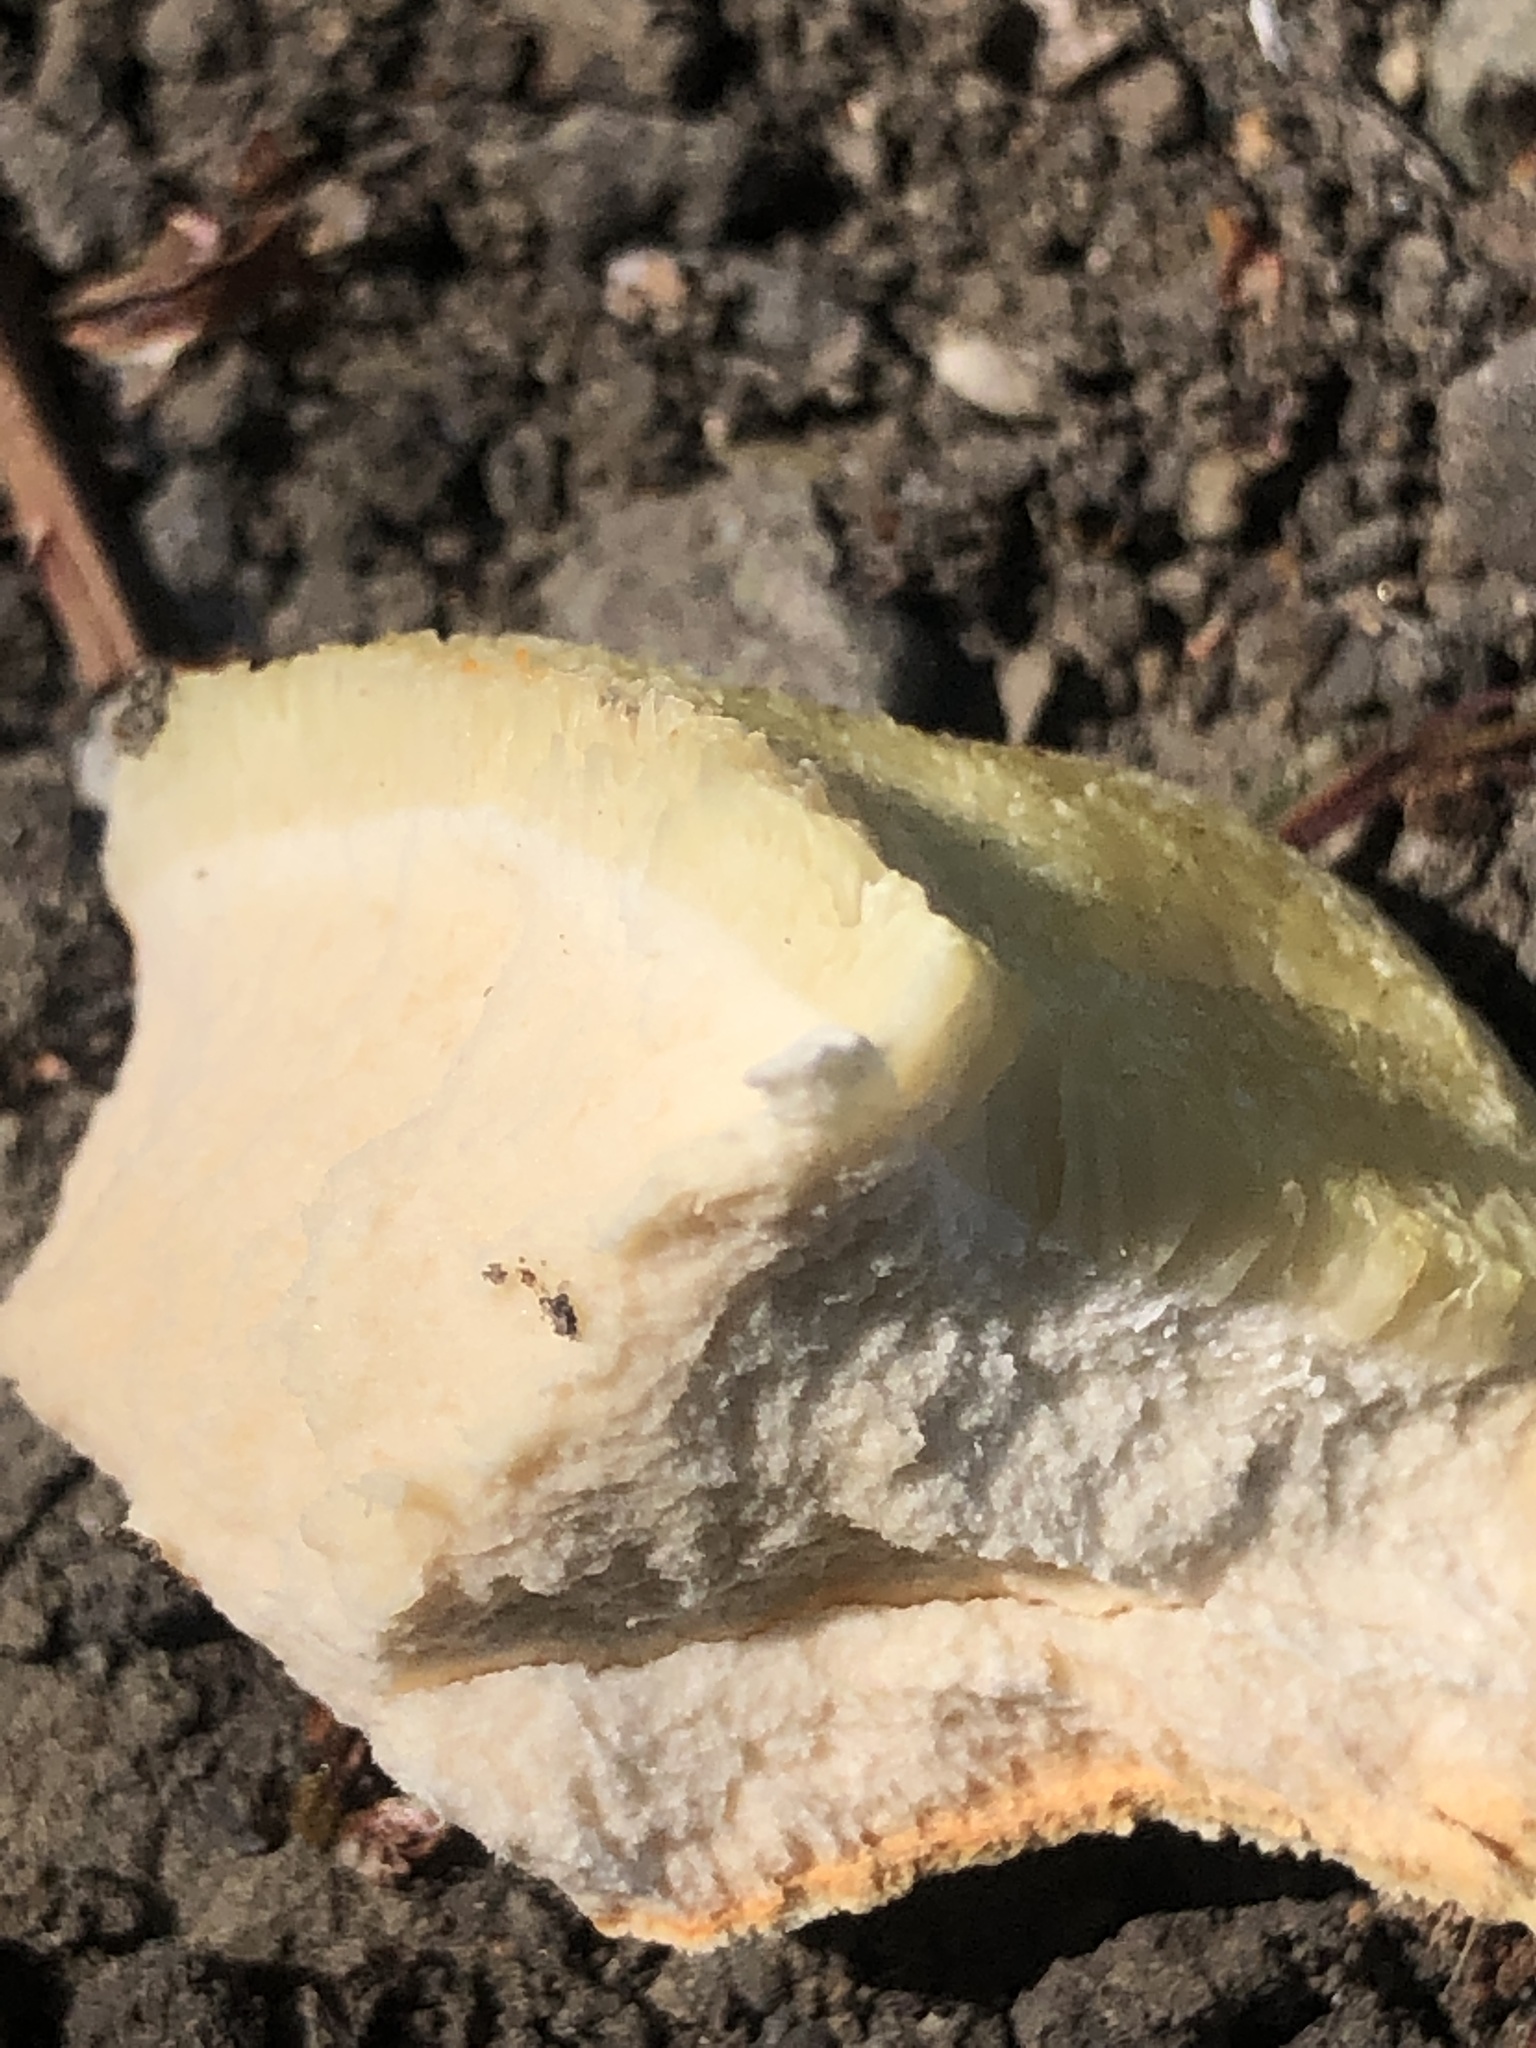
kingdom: Fungi
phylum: Basidiomycota
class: Agaricomycetes
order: Polyporales
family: Laetiporaceae
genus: Laetiporus
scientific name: Laetiporus gilbertsonii
